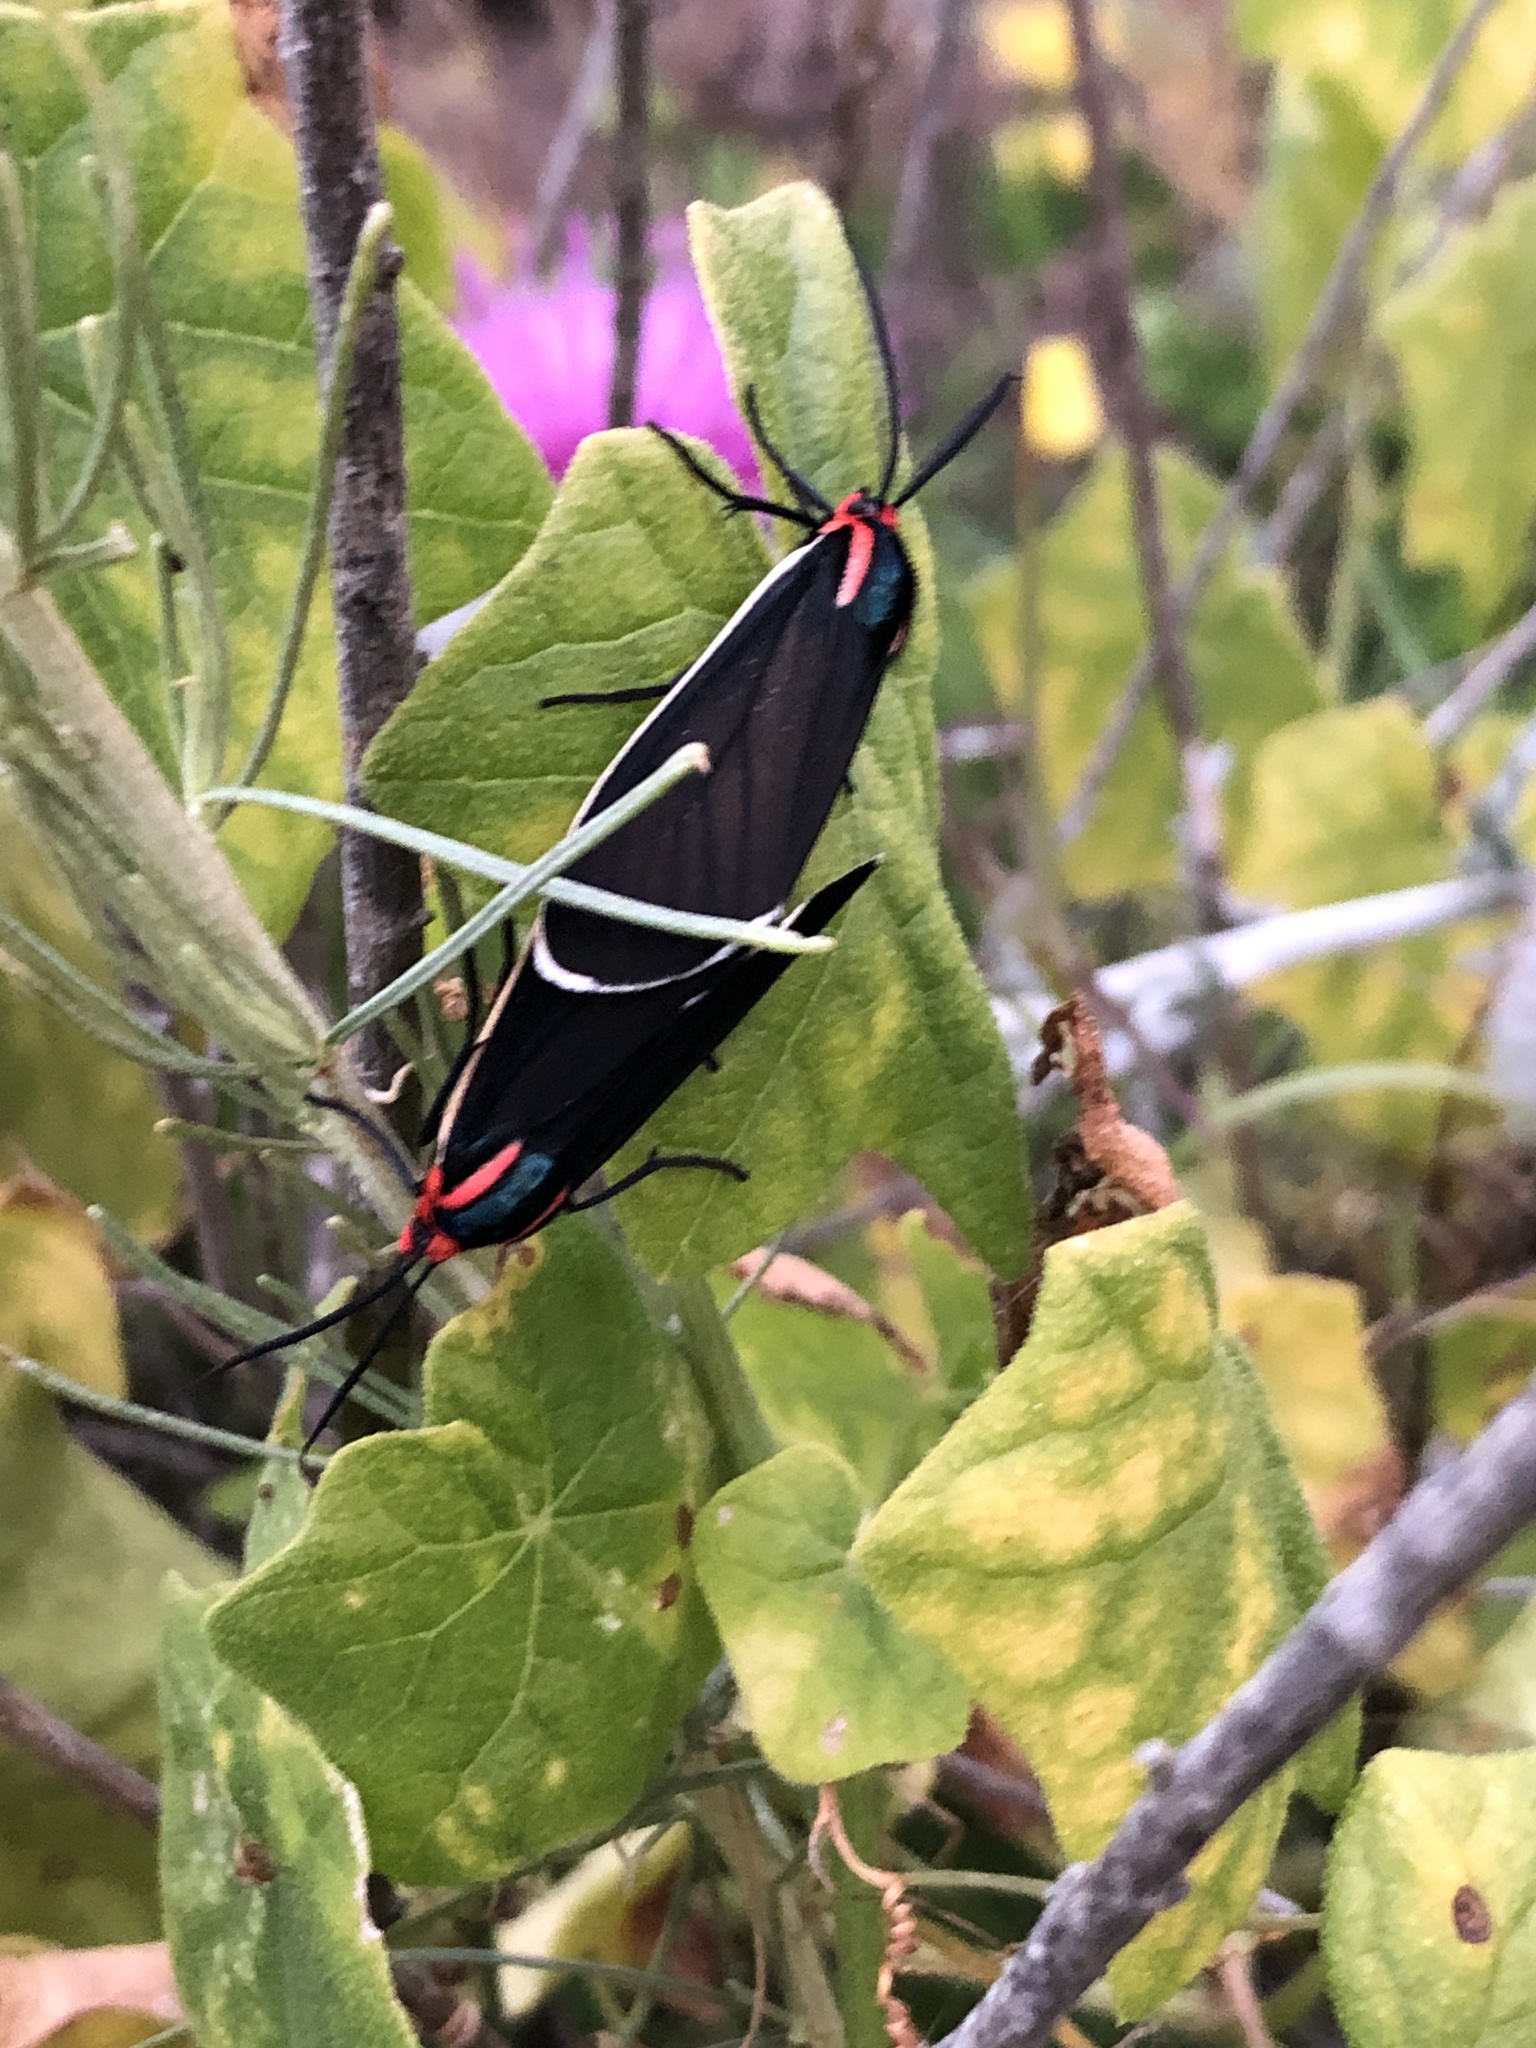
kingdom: Animalia
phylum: Arthropoda
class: Insecta
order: Lepidoptera
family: Erebidae
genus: Ctenucha
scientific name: Ctenucha multifaria
